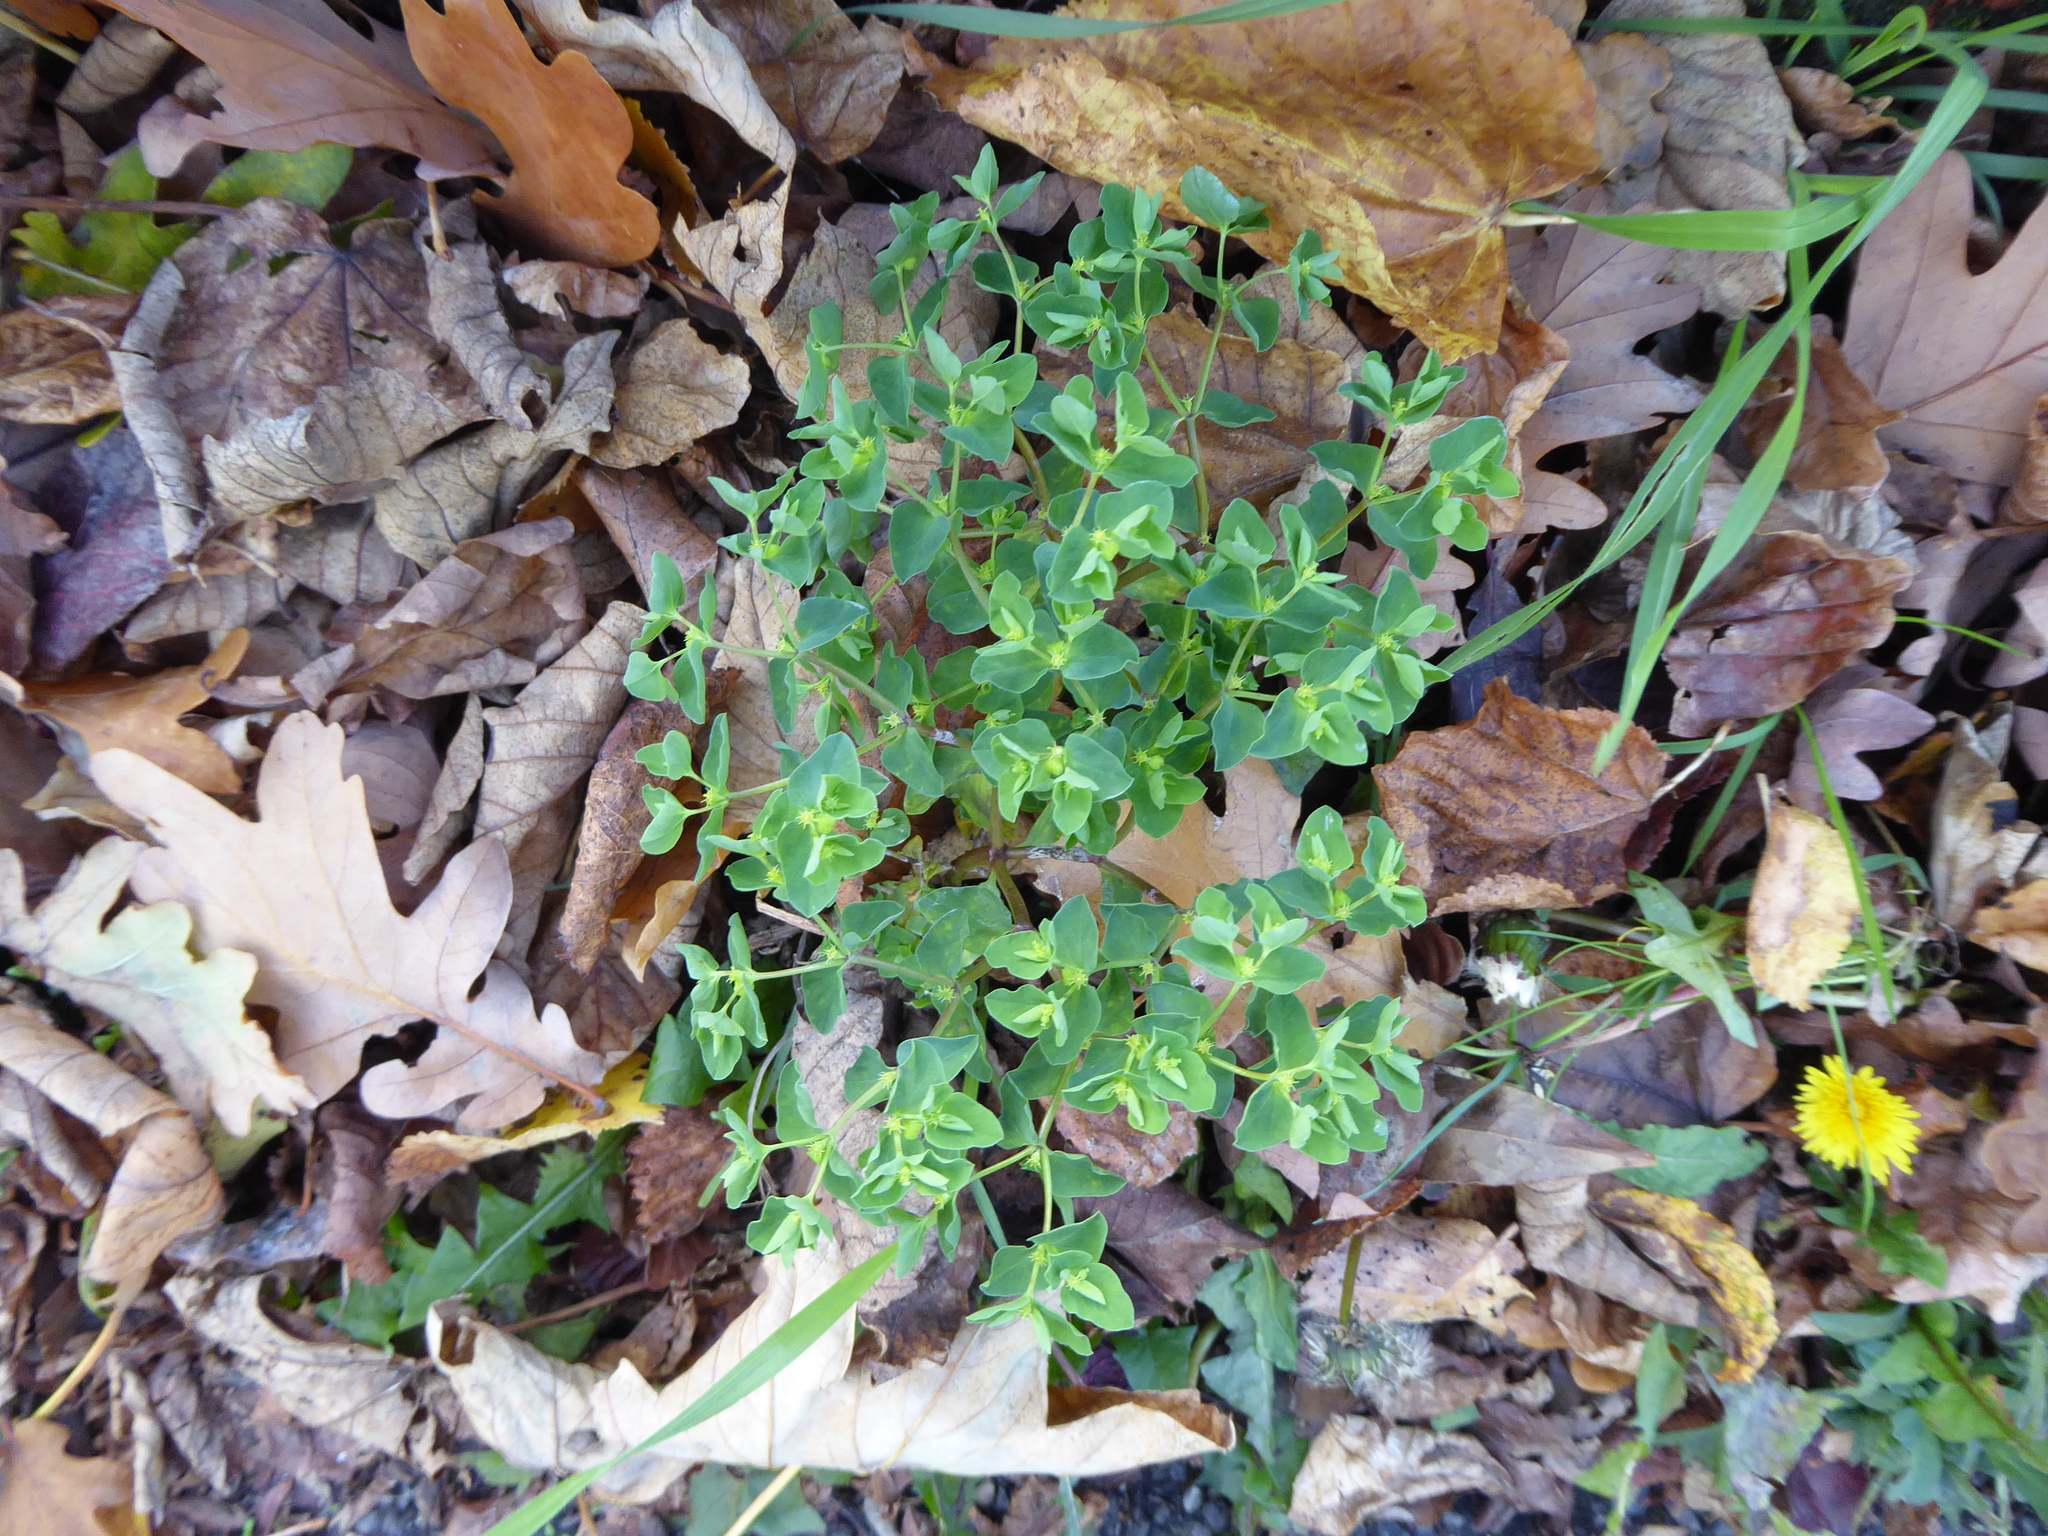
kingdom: Plantae
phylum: Tracheophyta
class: Magnoliopsida
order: Malpighiales
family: Euphorbiaceae
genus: Euphorbia
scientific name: Euphorbia peplus
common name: Petty spurge
